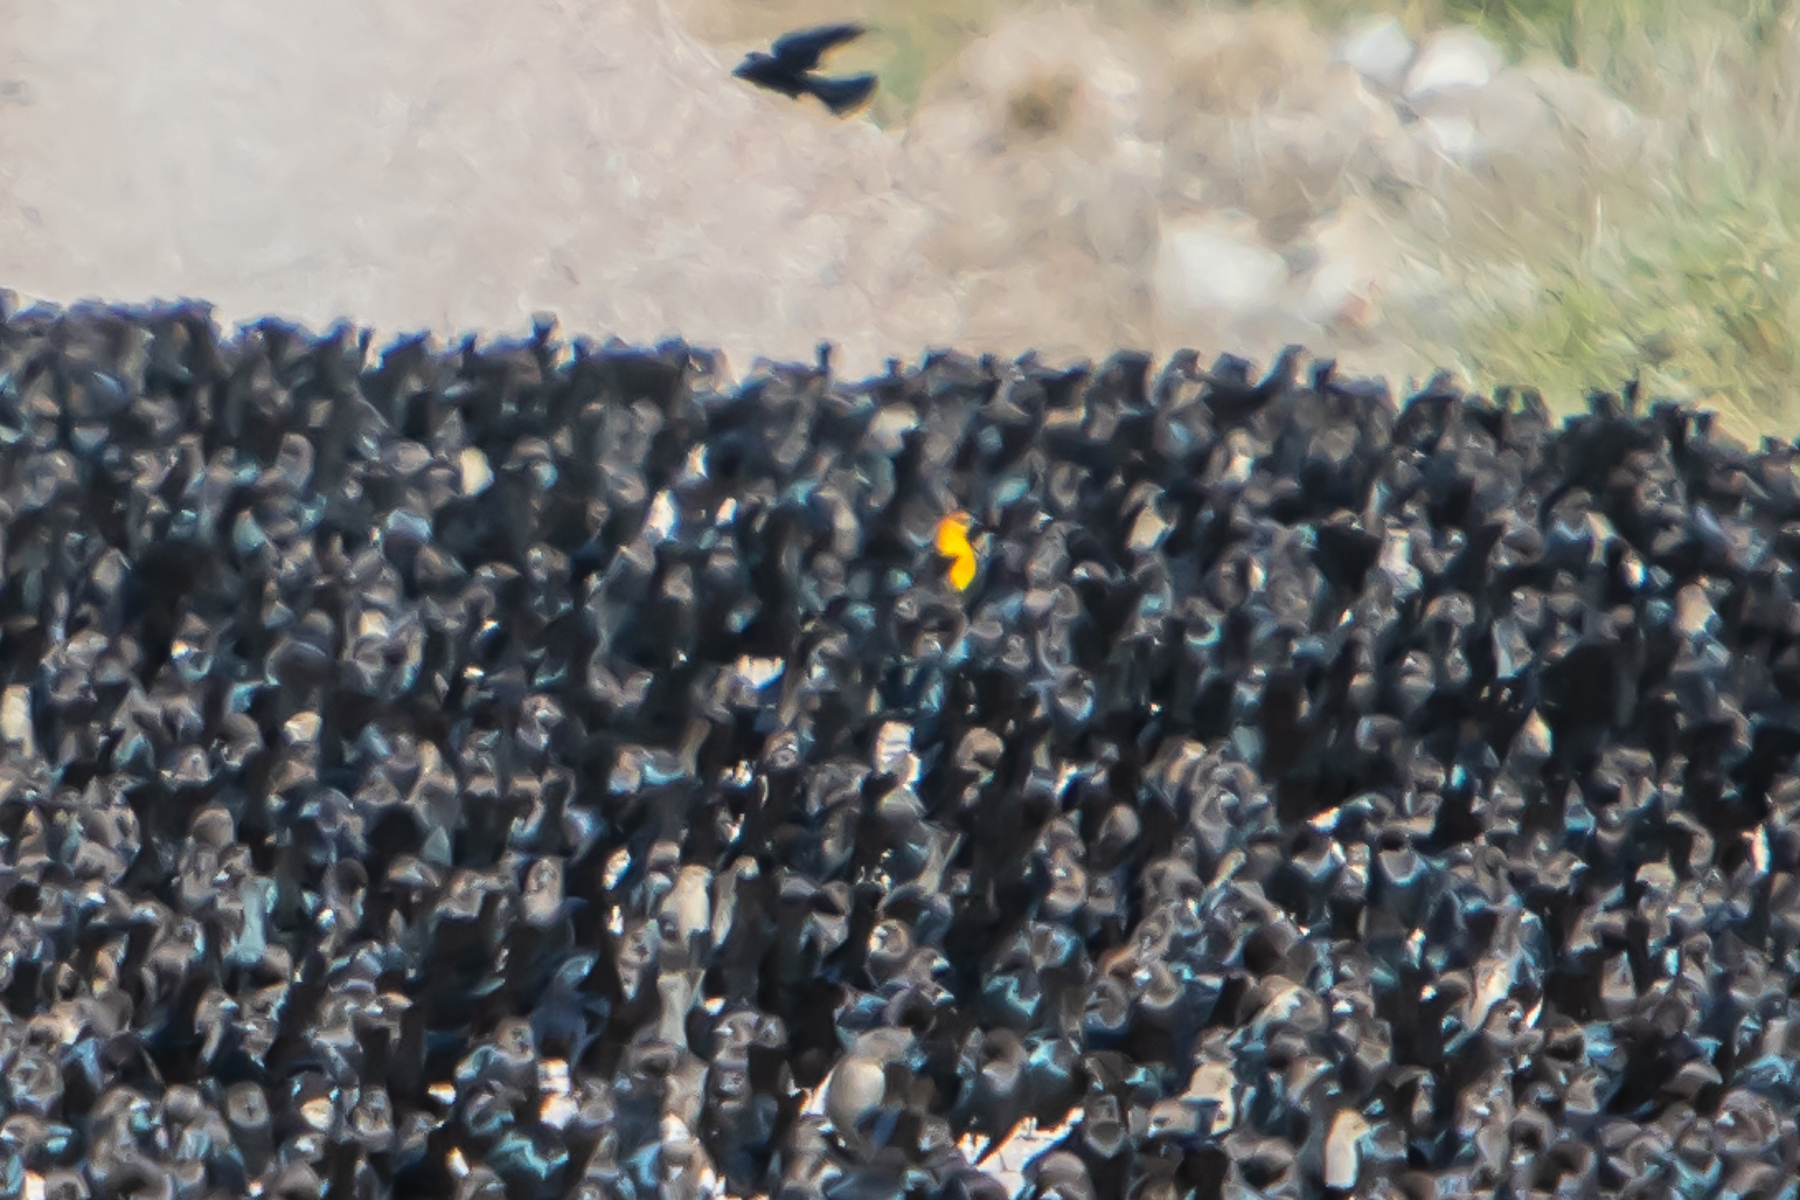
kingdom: Animalia
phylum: Chordata
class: Aves
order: Passeriformes
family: Icteridae
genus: Xanthocephalus
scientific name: Xanthocephalus xanthocephalus
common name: Yellow-headed blackbird
